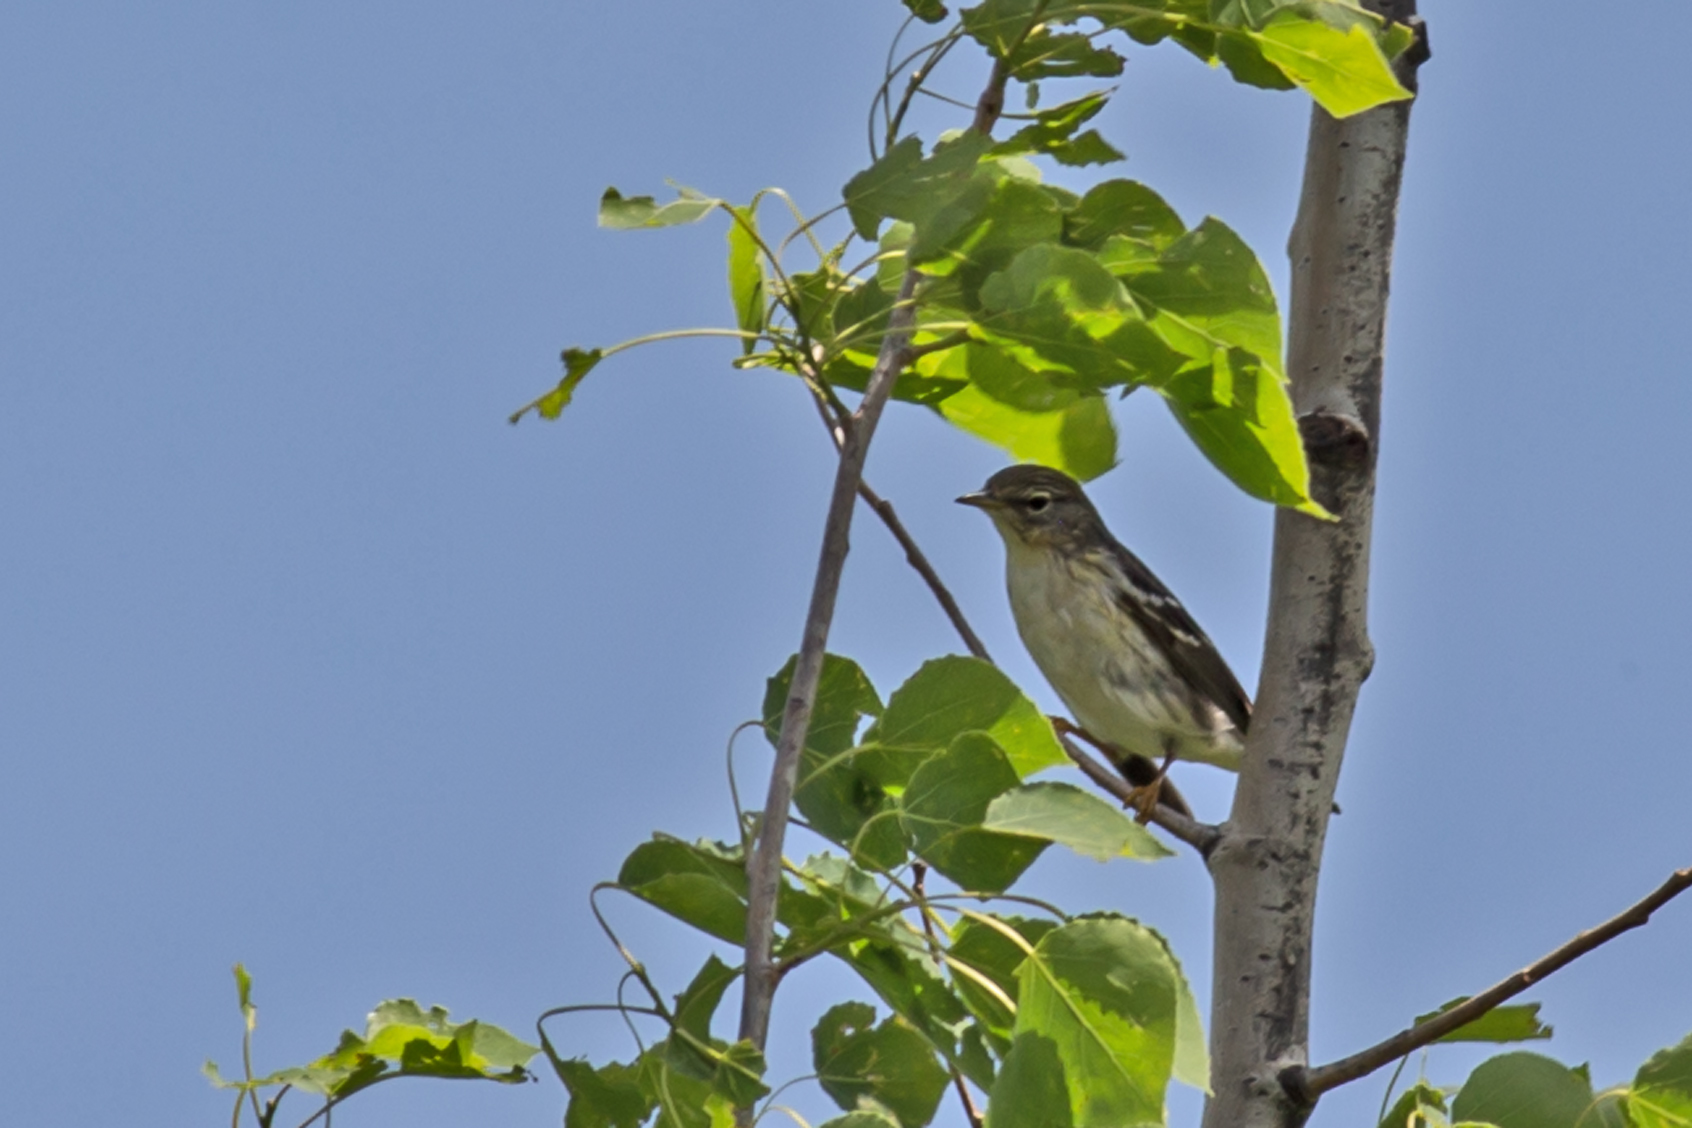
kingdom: Animalia
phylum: Chordata
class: Aves
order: Passeriformes
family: Parulidae
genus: Setophaga
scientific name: Setophaga striata
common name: Blackpoll warbler
